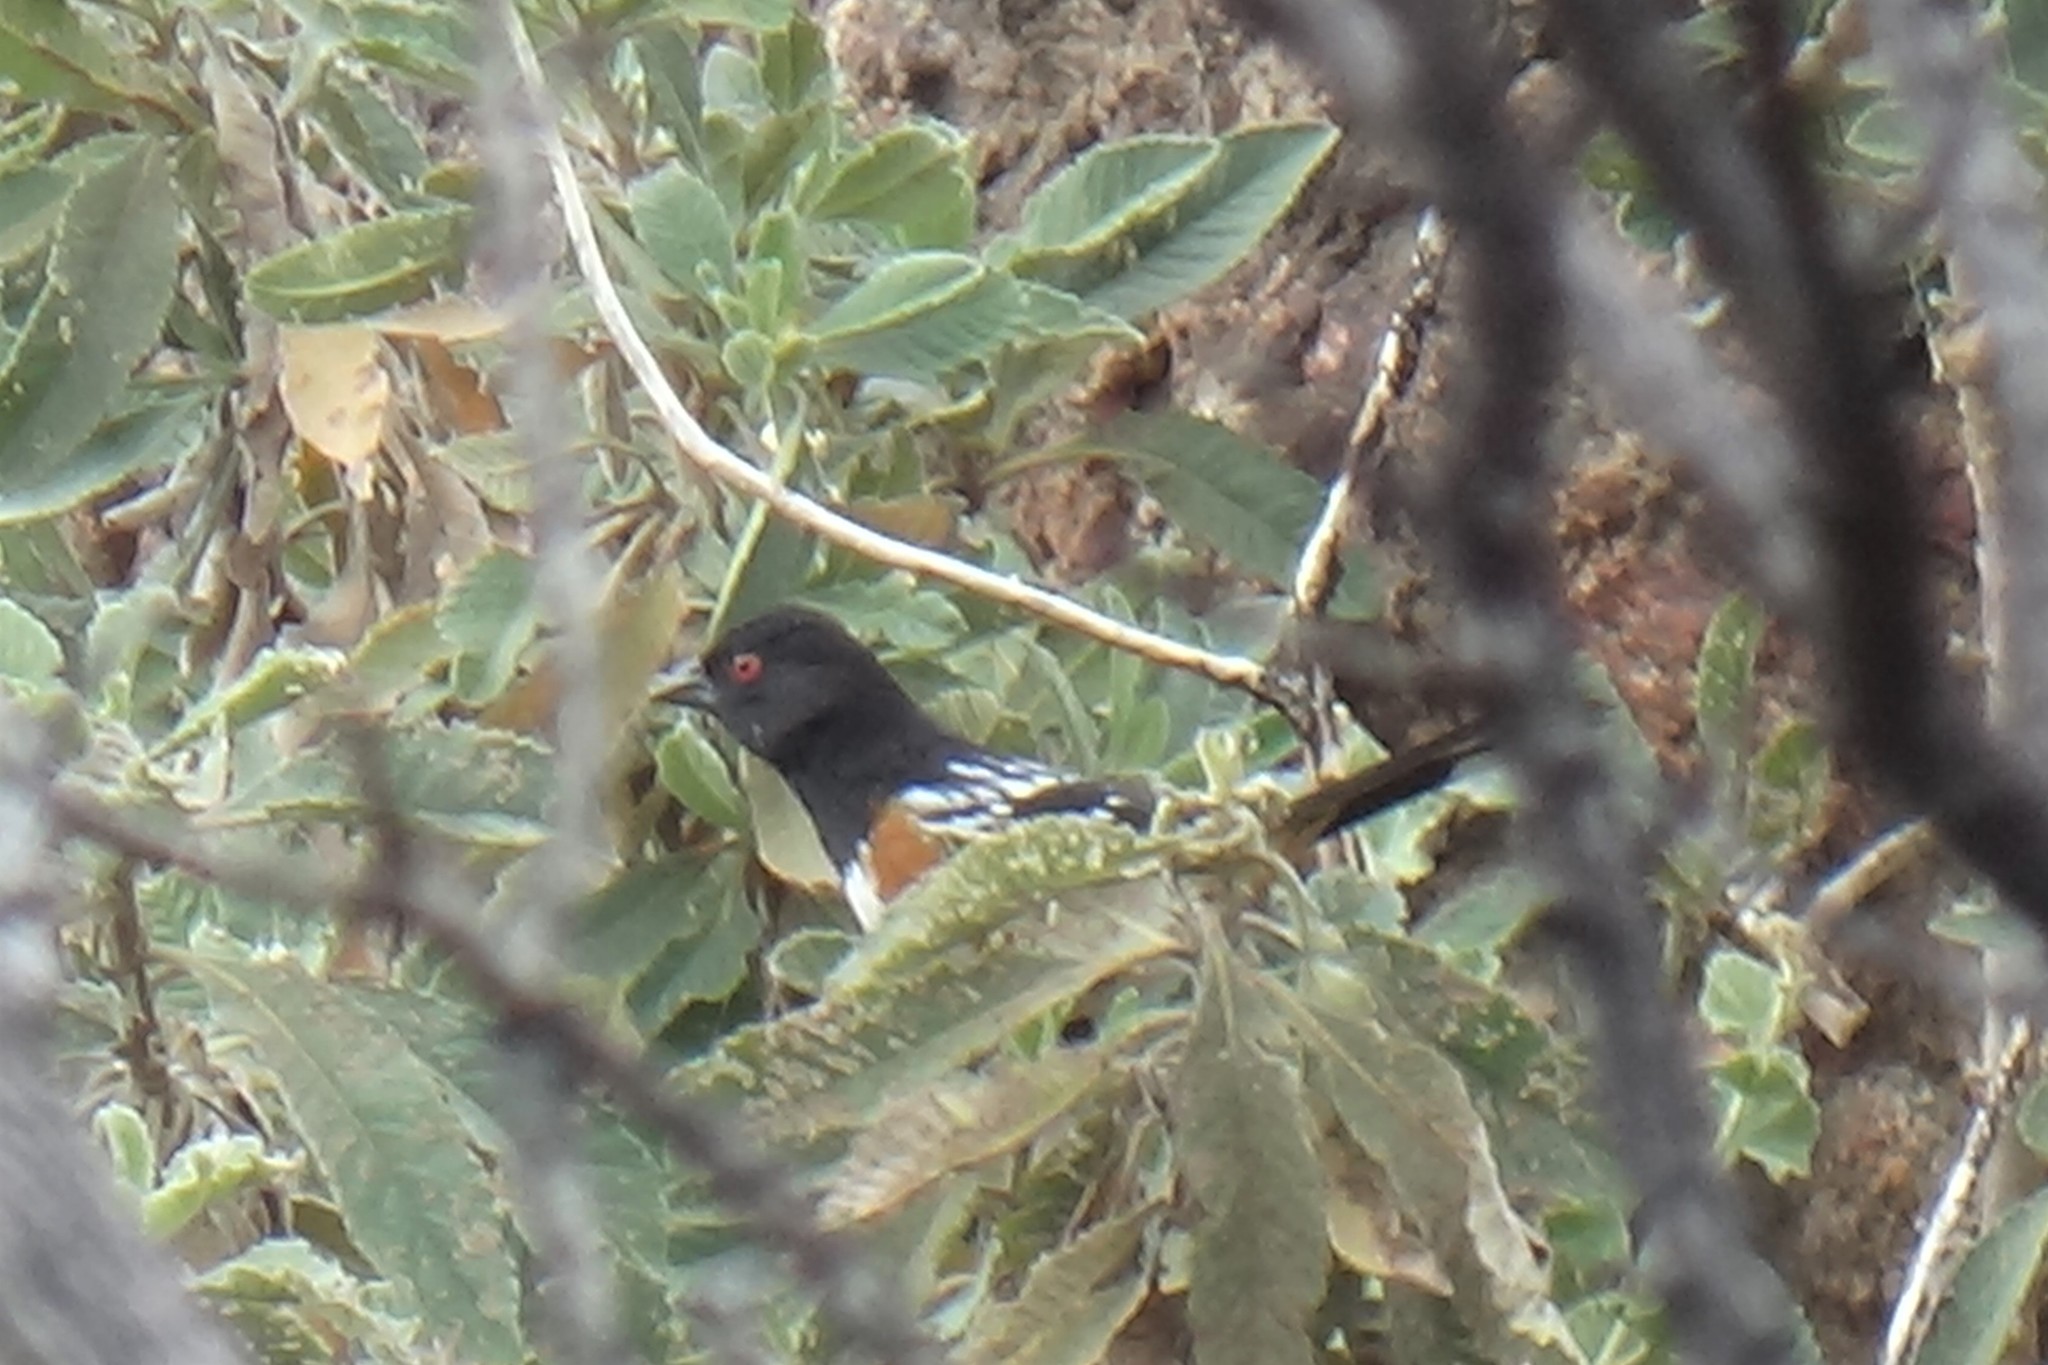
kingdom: Animalia
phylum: Chordata
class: Aves
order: Passeriformes
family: Passerellidae
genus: Pipilo
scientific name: Pipilo maculatus
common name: Spotted towhee
